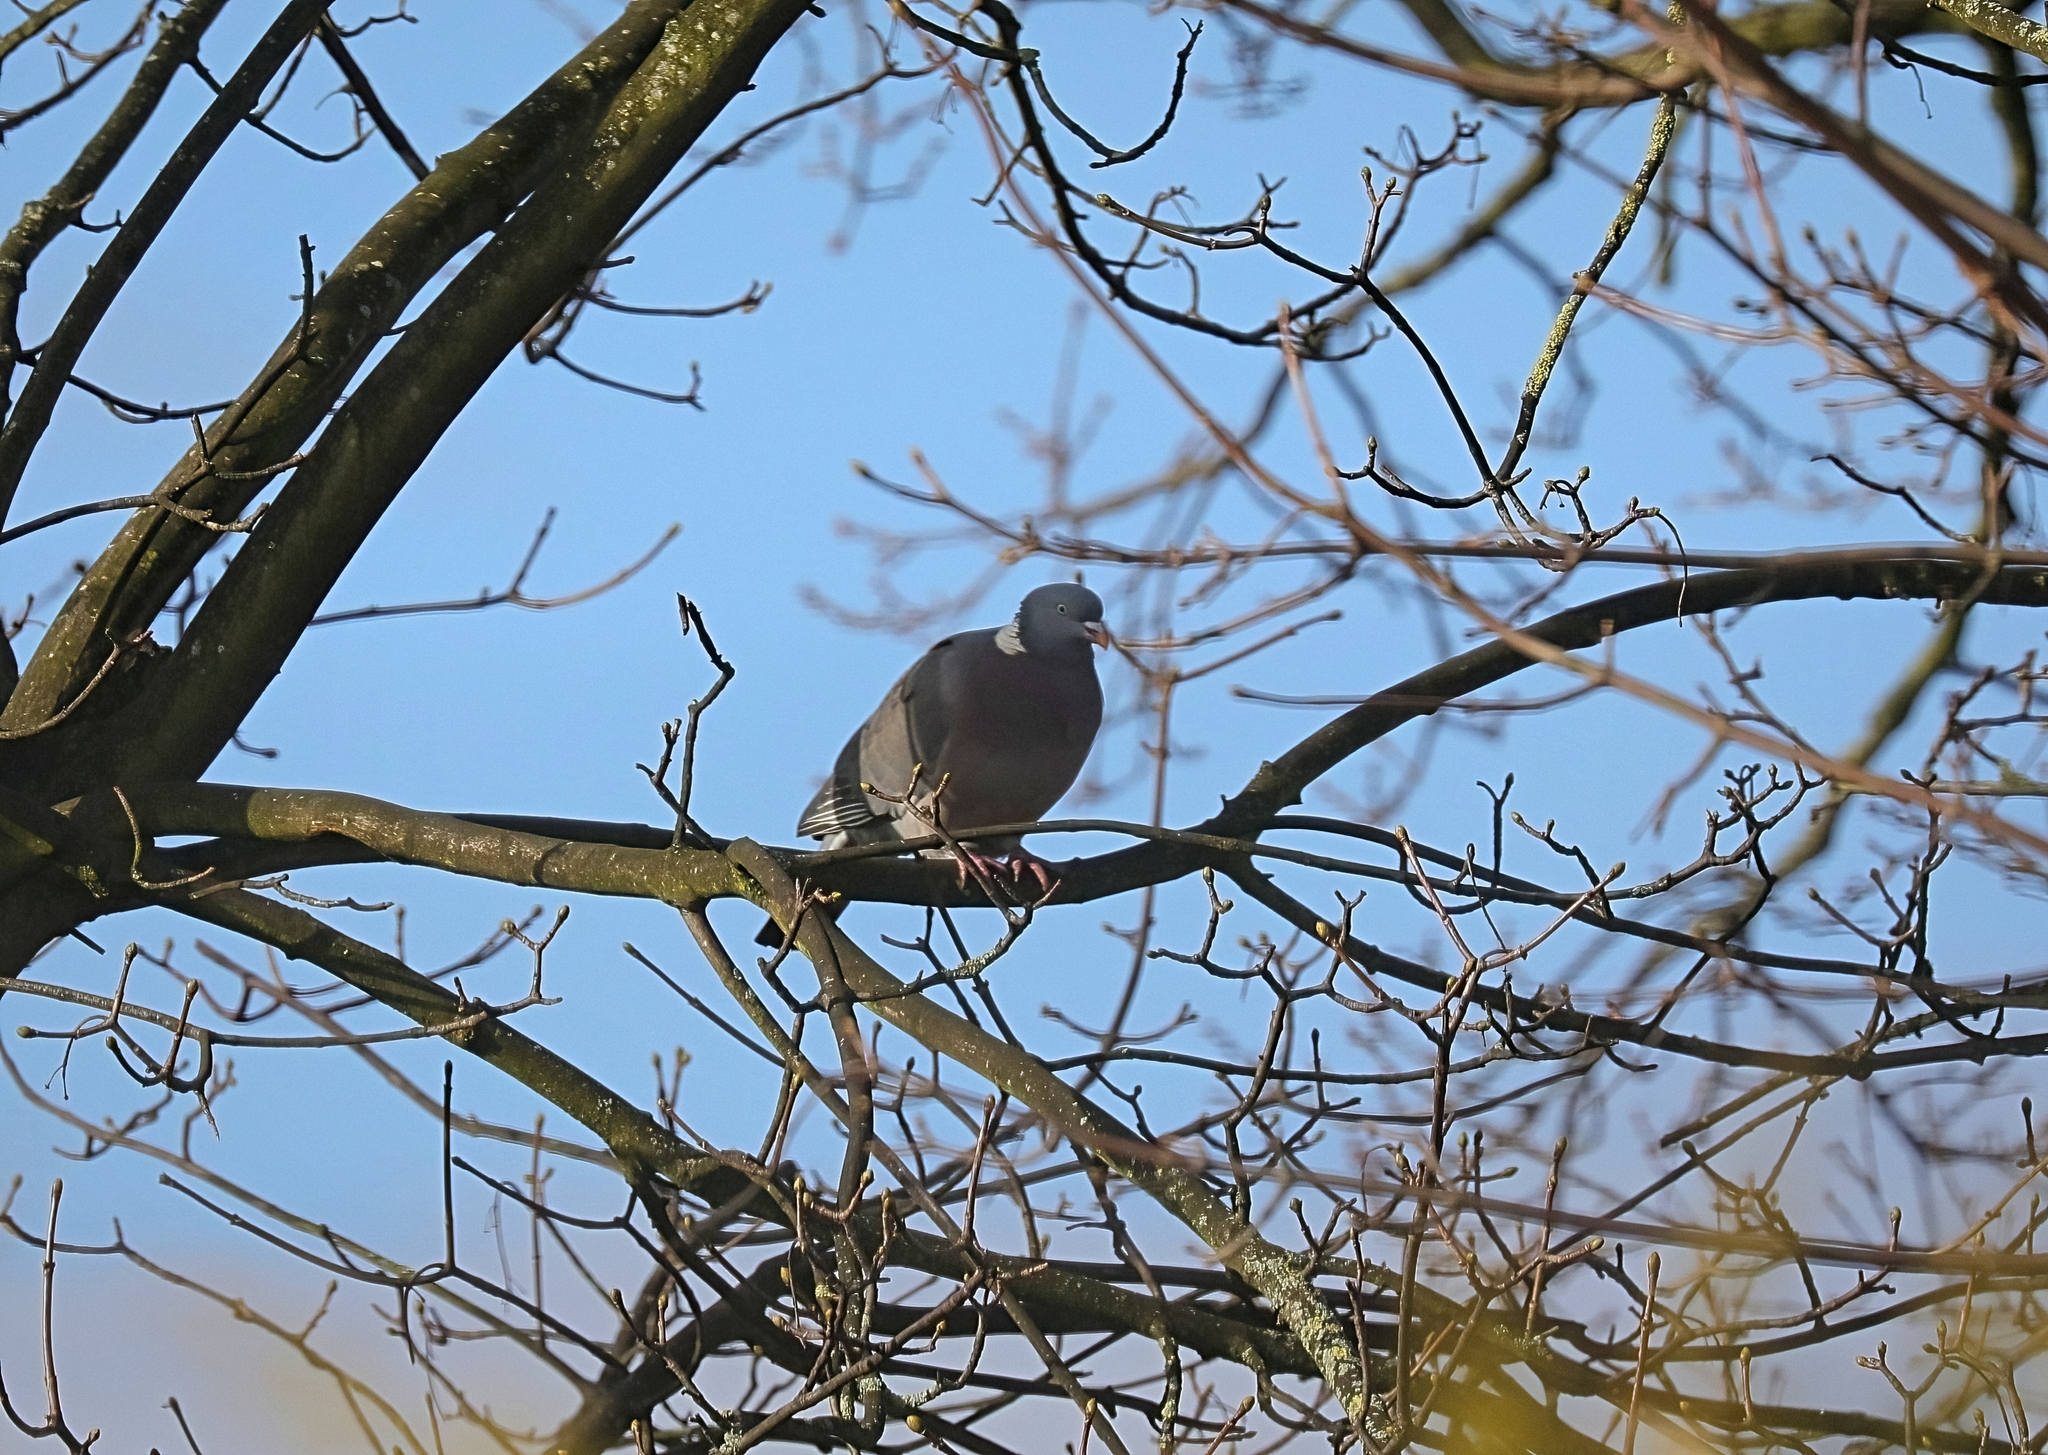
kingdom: Animalia
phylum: Chordata
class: Aves
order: Columbiformes
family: Columbidae
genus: Columba
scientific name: Columba palumbus
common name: Common wood pigeon
